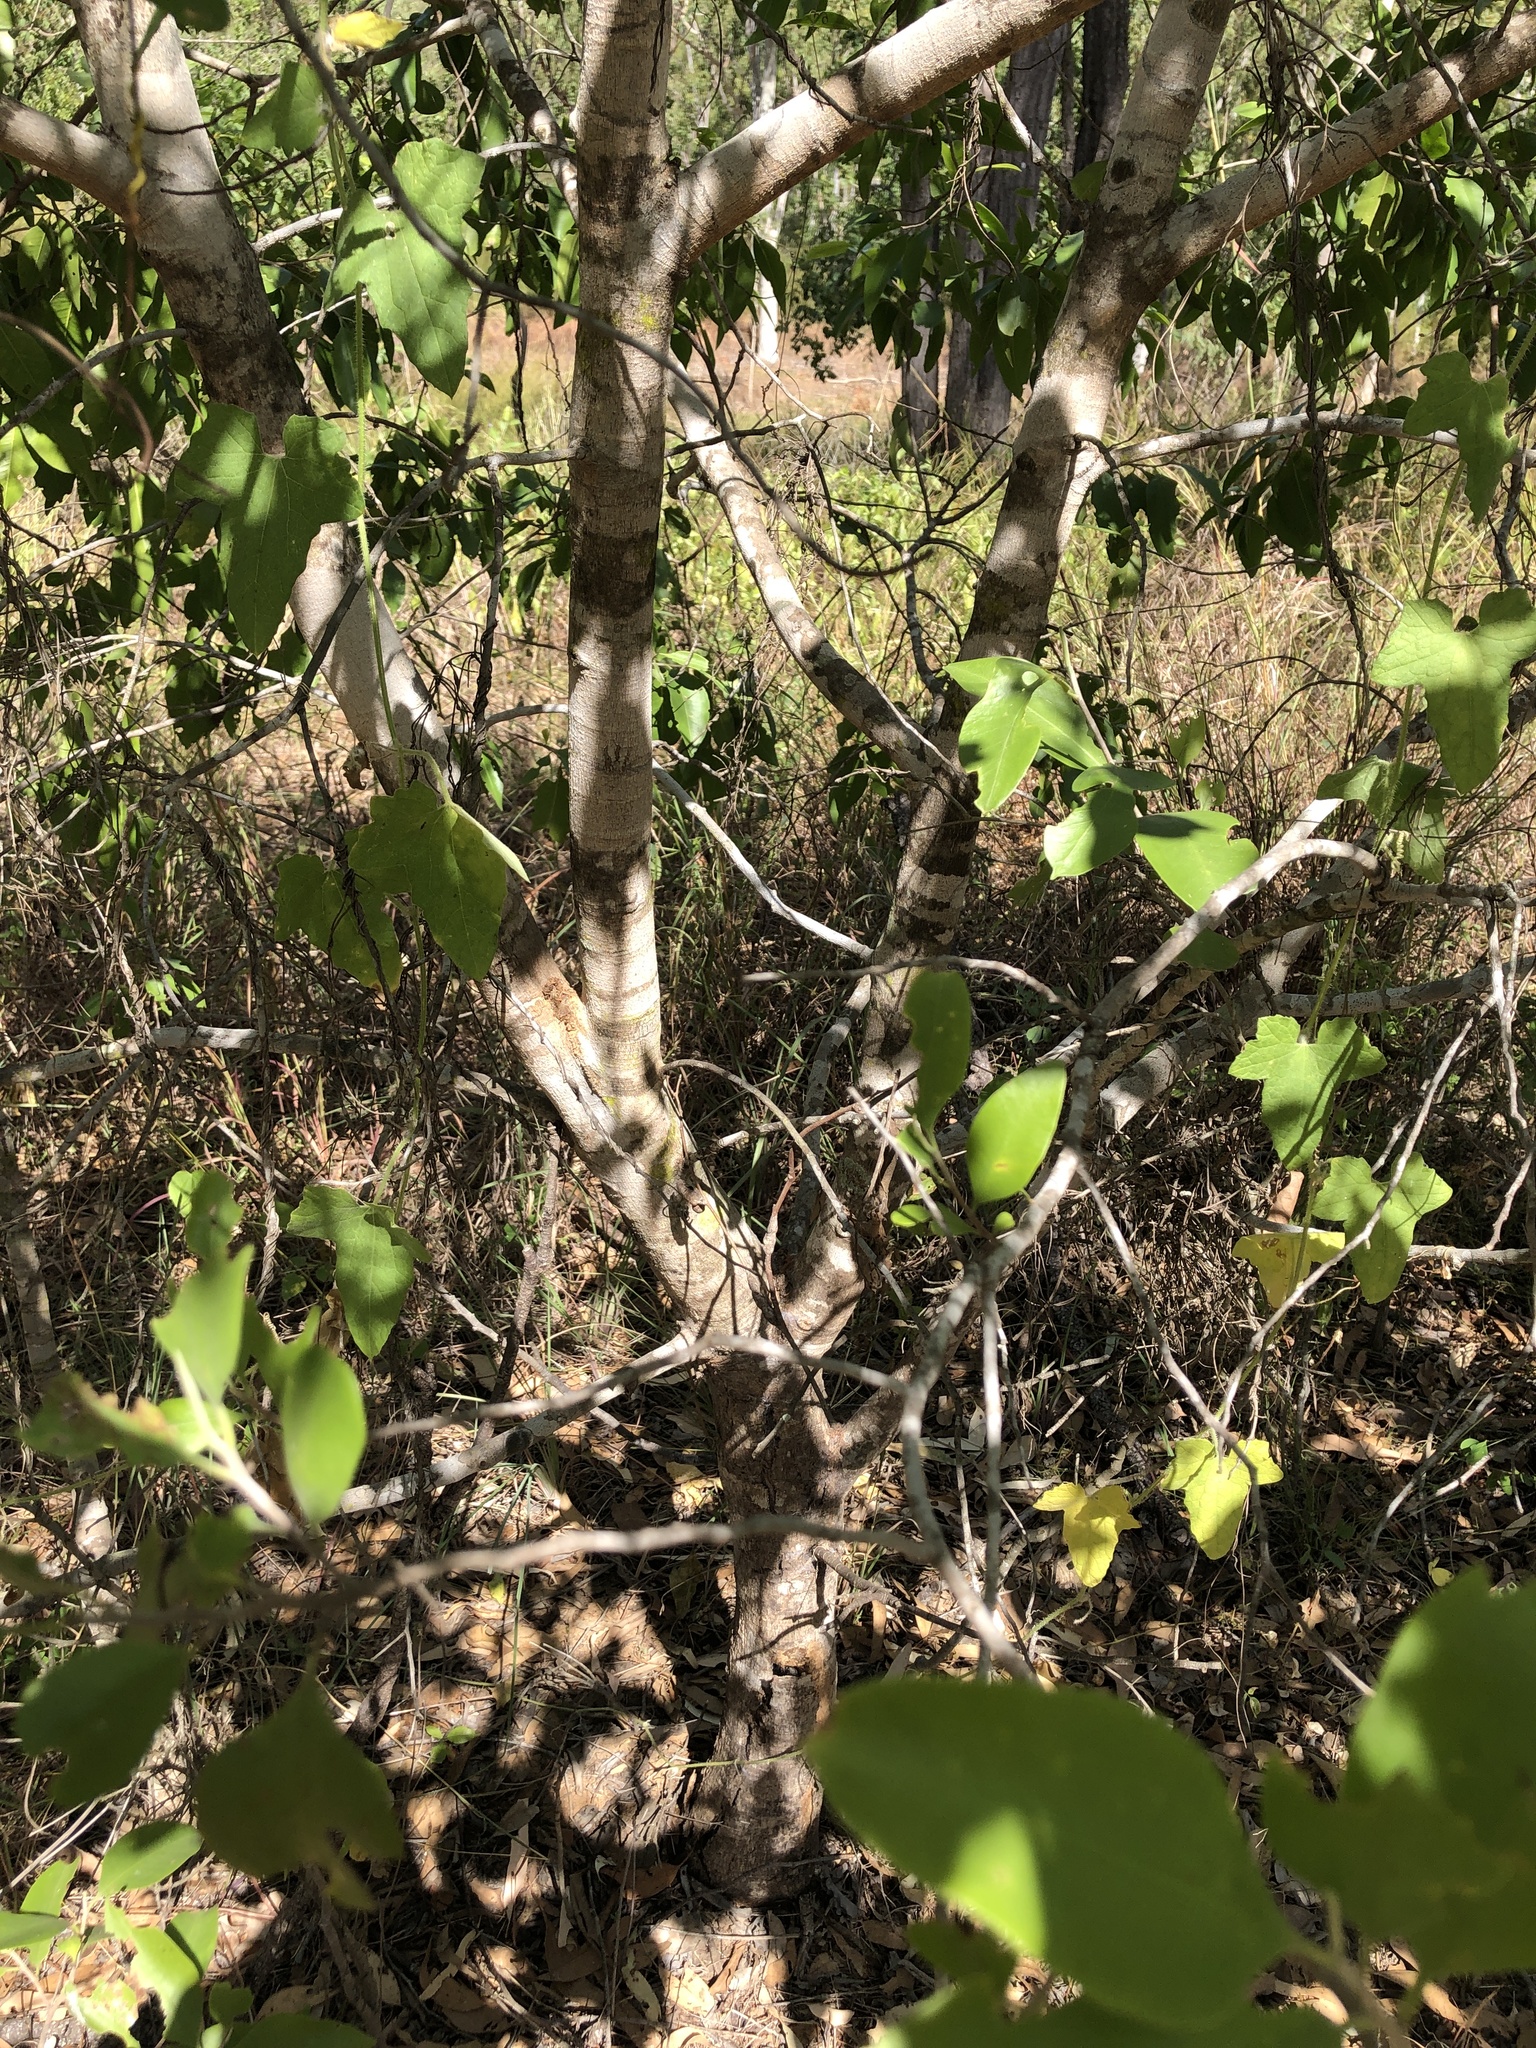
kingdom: Plantae
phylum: Tracheophyta
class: Magnoliopsida
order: Sapindales
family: Rutaceae
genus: Geijera
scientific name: Geijera salicifolia
